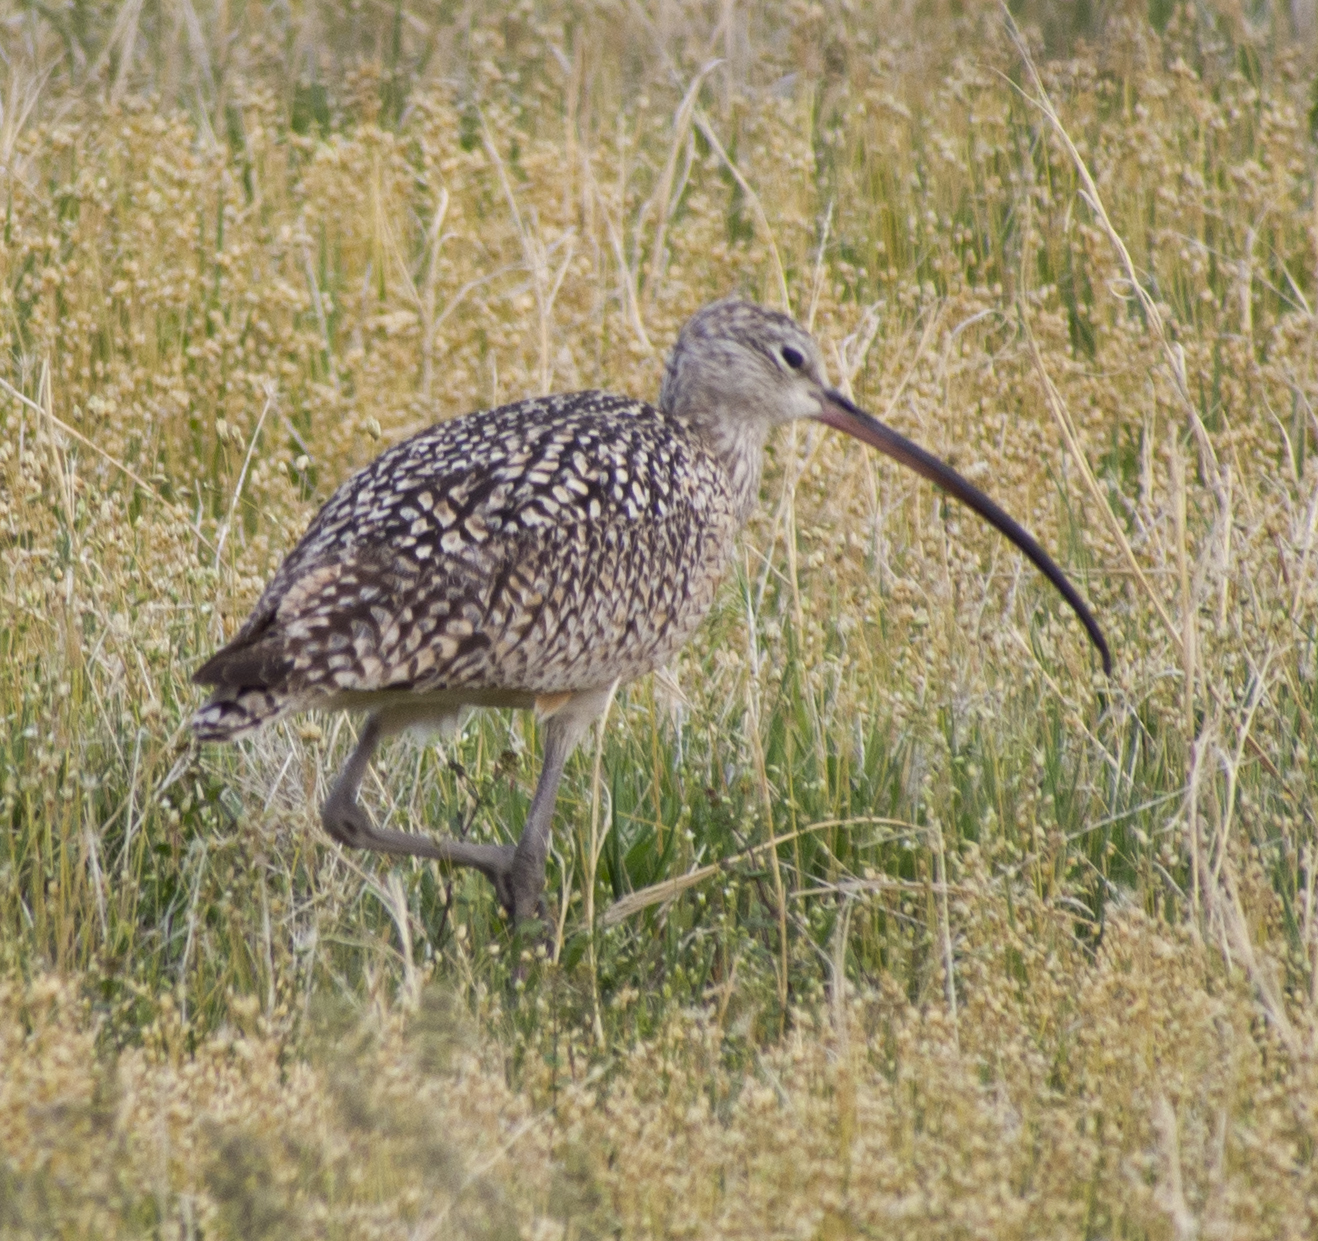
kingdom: Animalia
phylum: Chordata
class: Aves
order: Charadriiformes
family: Scolopacidae
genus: Numenius
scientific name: Numenius americanus
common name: Long-billed curlew
